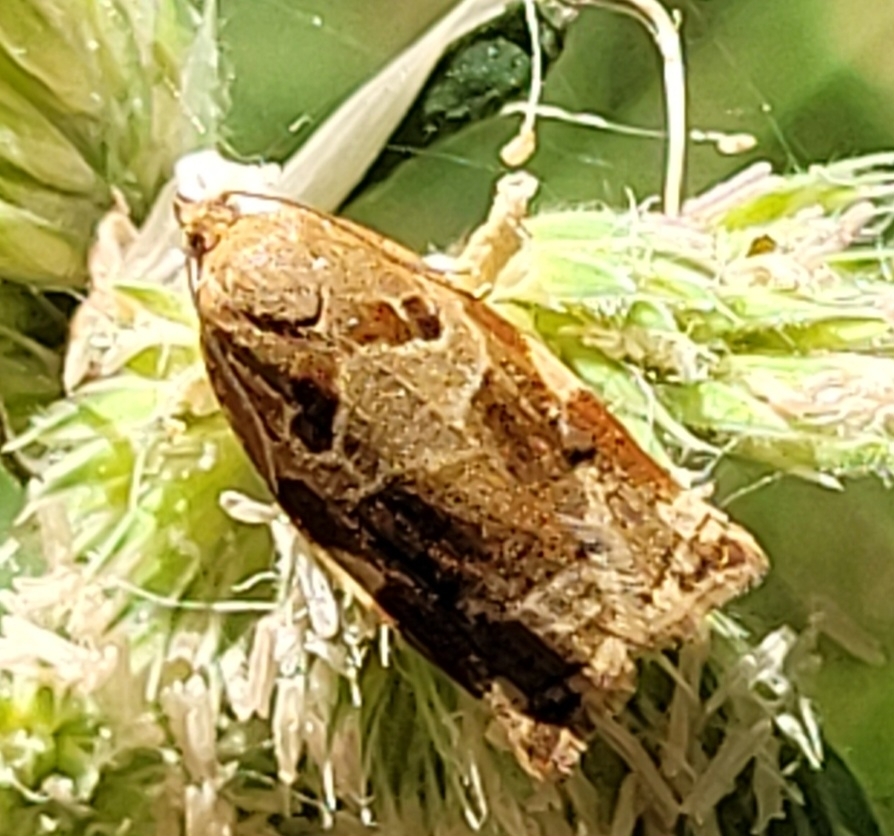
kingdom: Animalia
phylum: Arthropoda
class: Insecta
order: Lepidoptera
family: Tortricidae
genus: Archips
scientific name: Archips xylosteana
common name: Variegated golden tortrix
